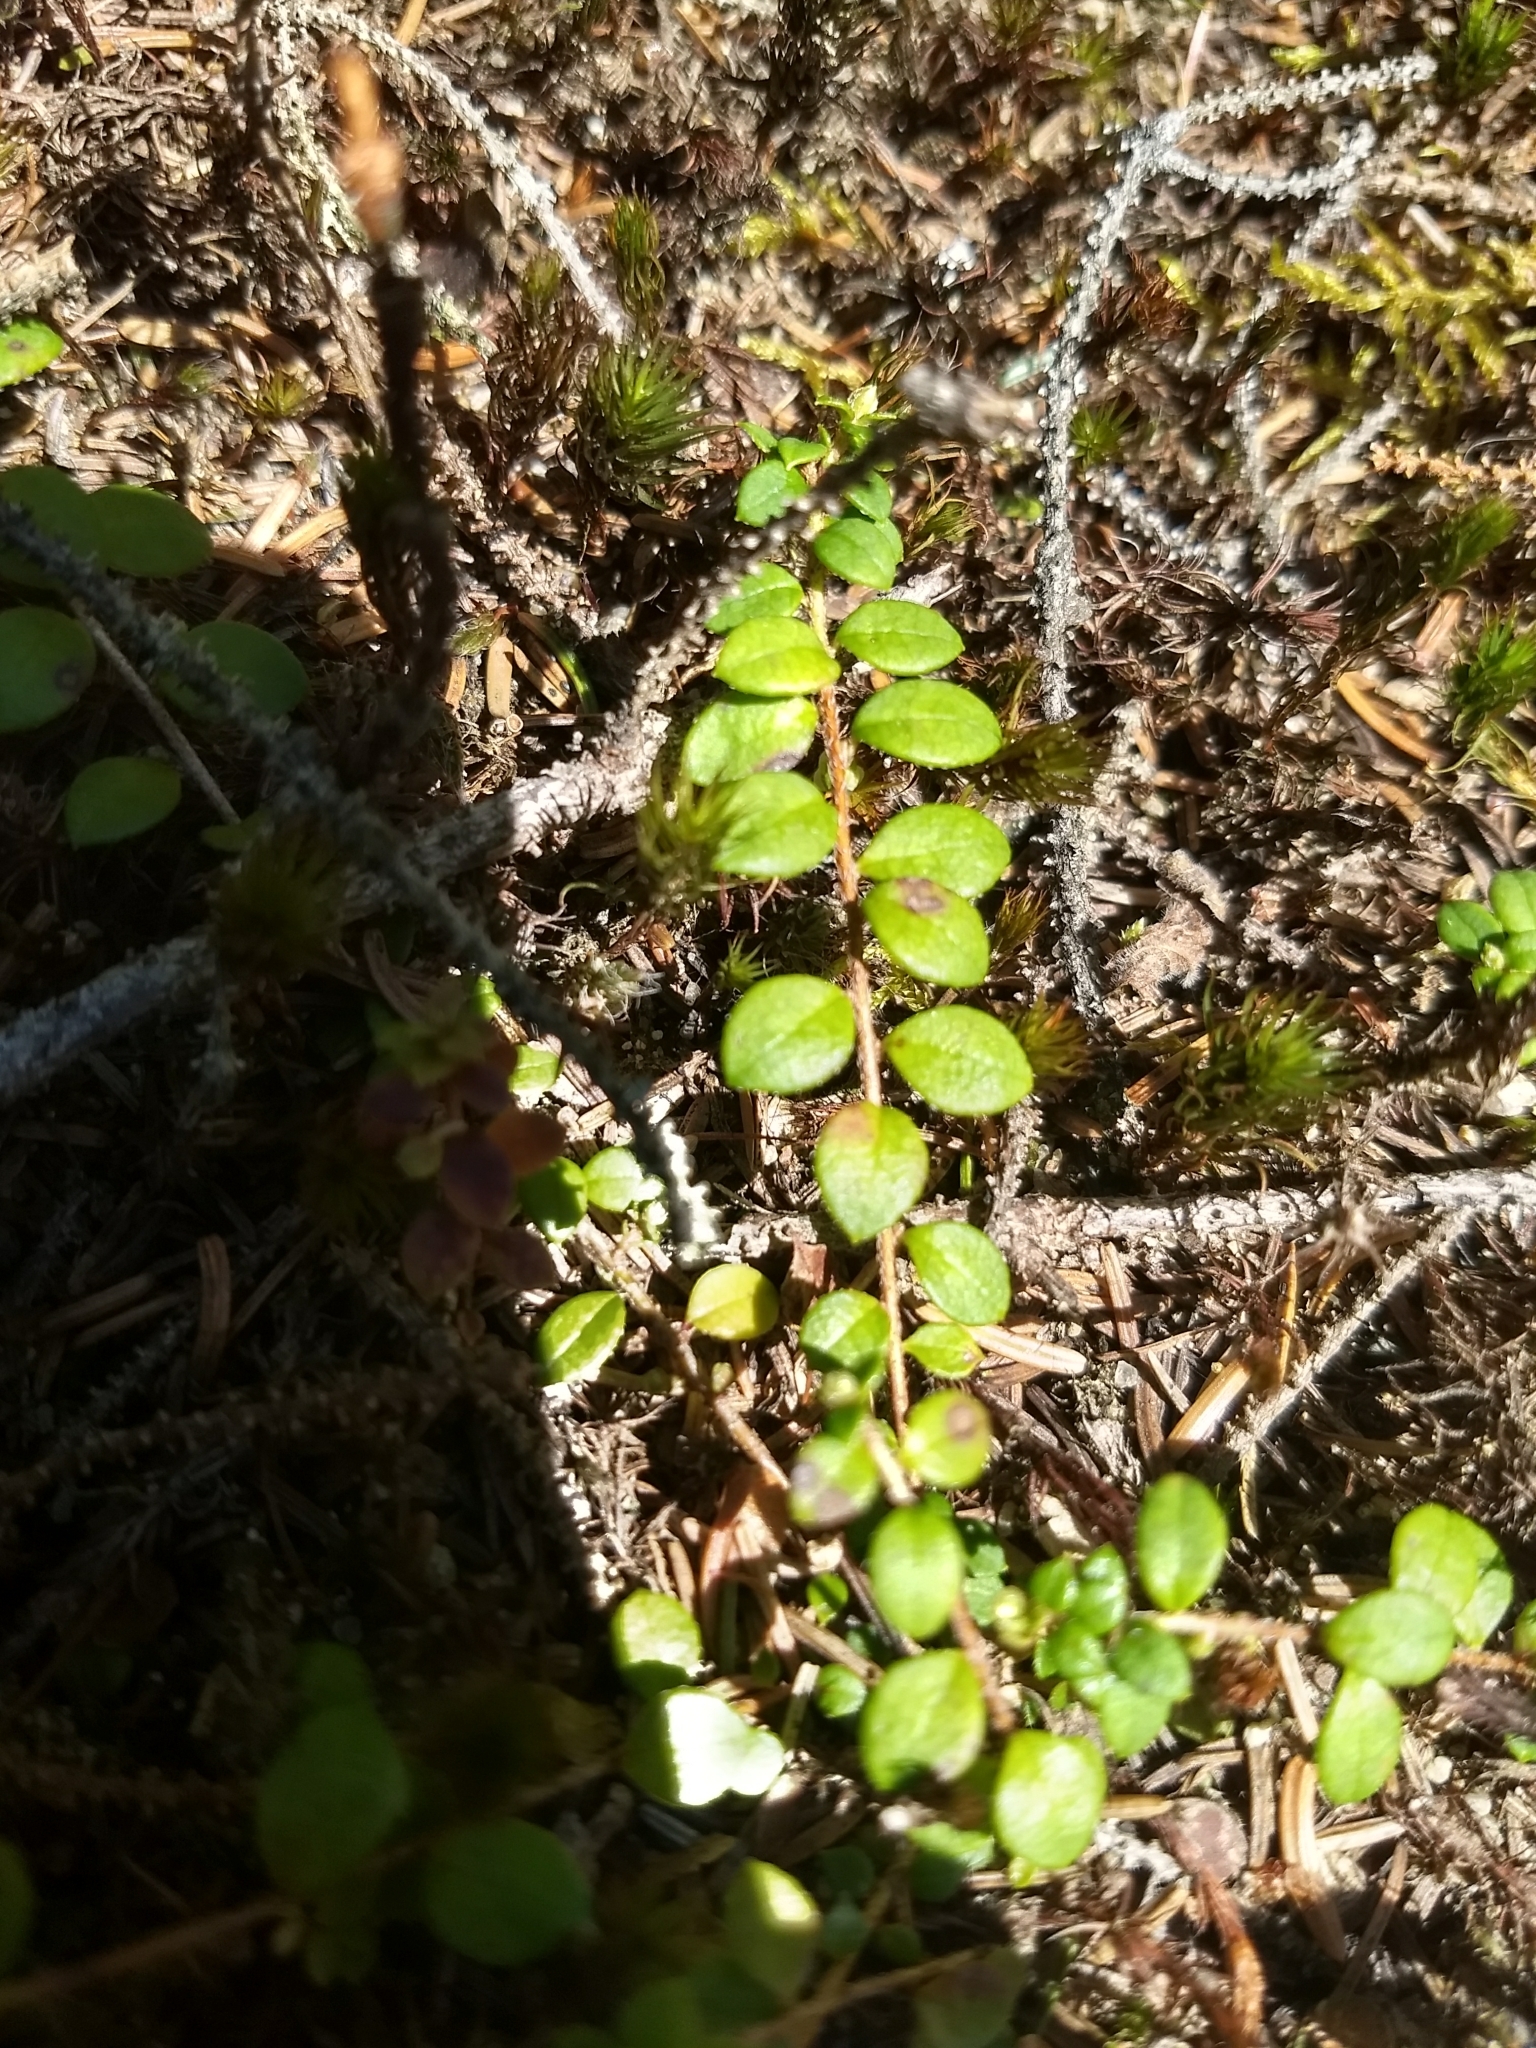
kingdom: Plantae
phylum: Tracheophyta
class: Magnoliopsida
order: Ericales
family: Ericaceae
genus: Gaultheria
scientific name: Gaultheria hispidula
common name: Cancer wintergreen
